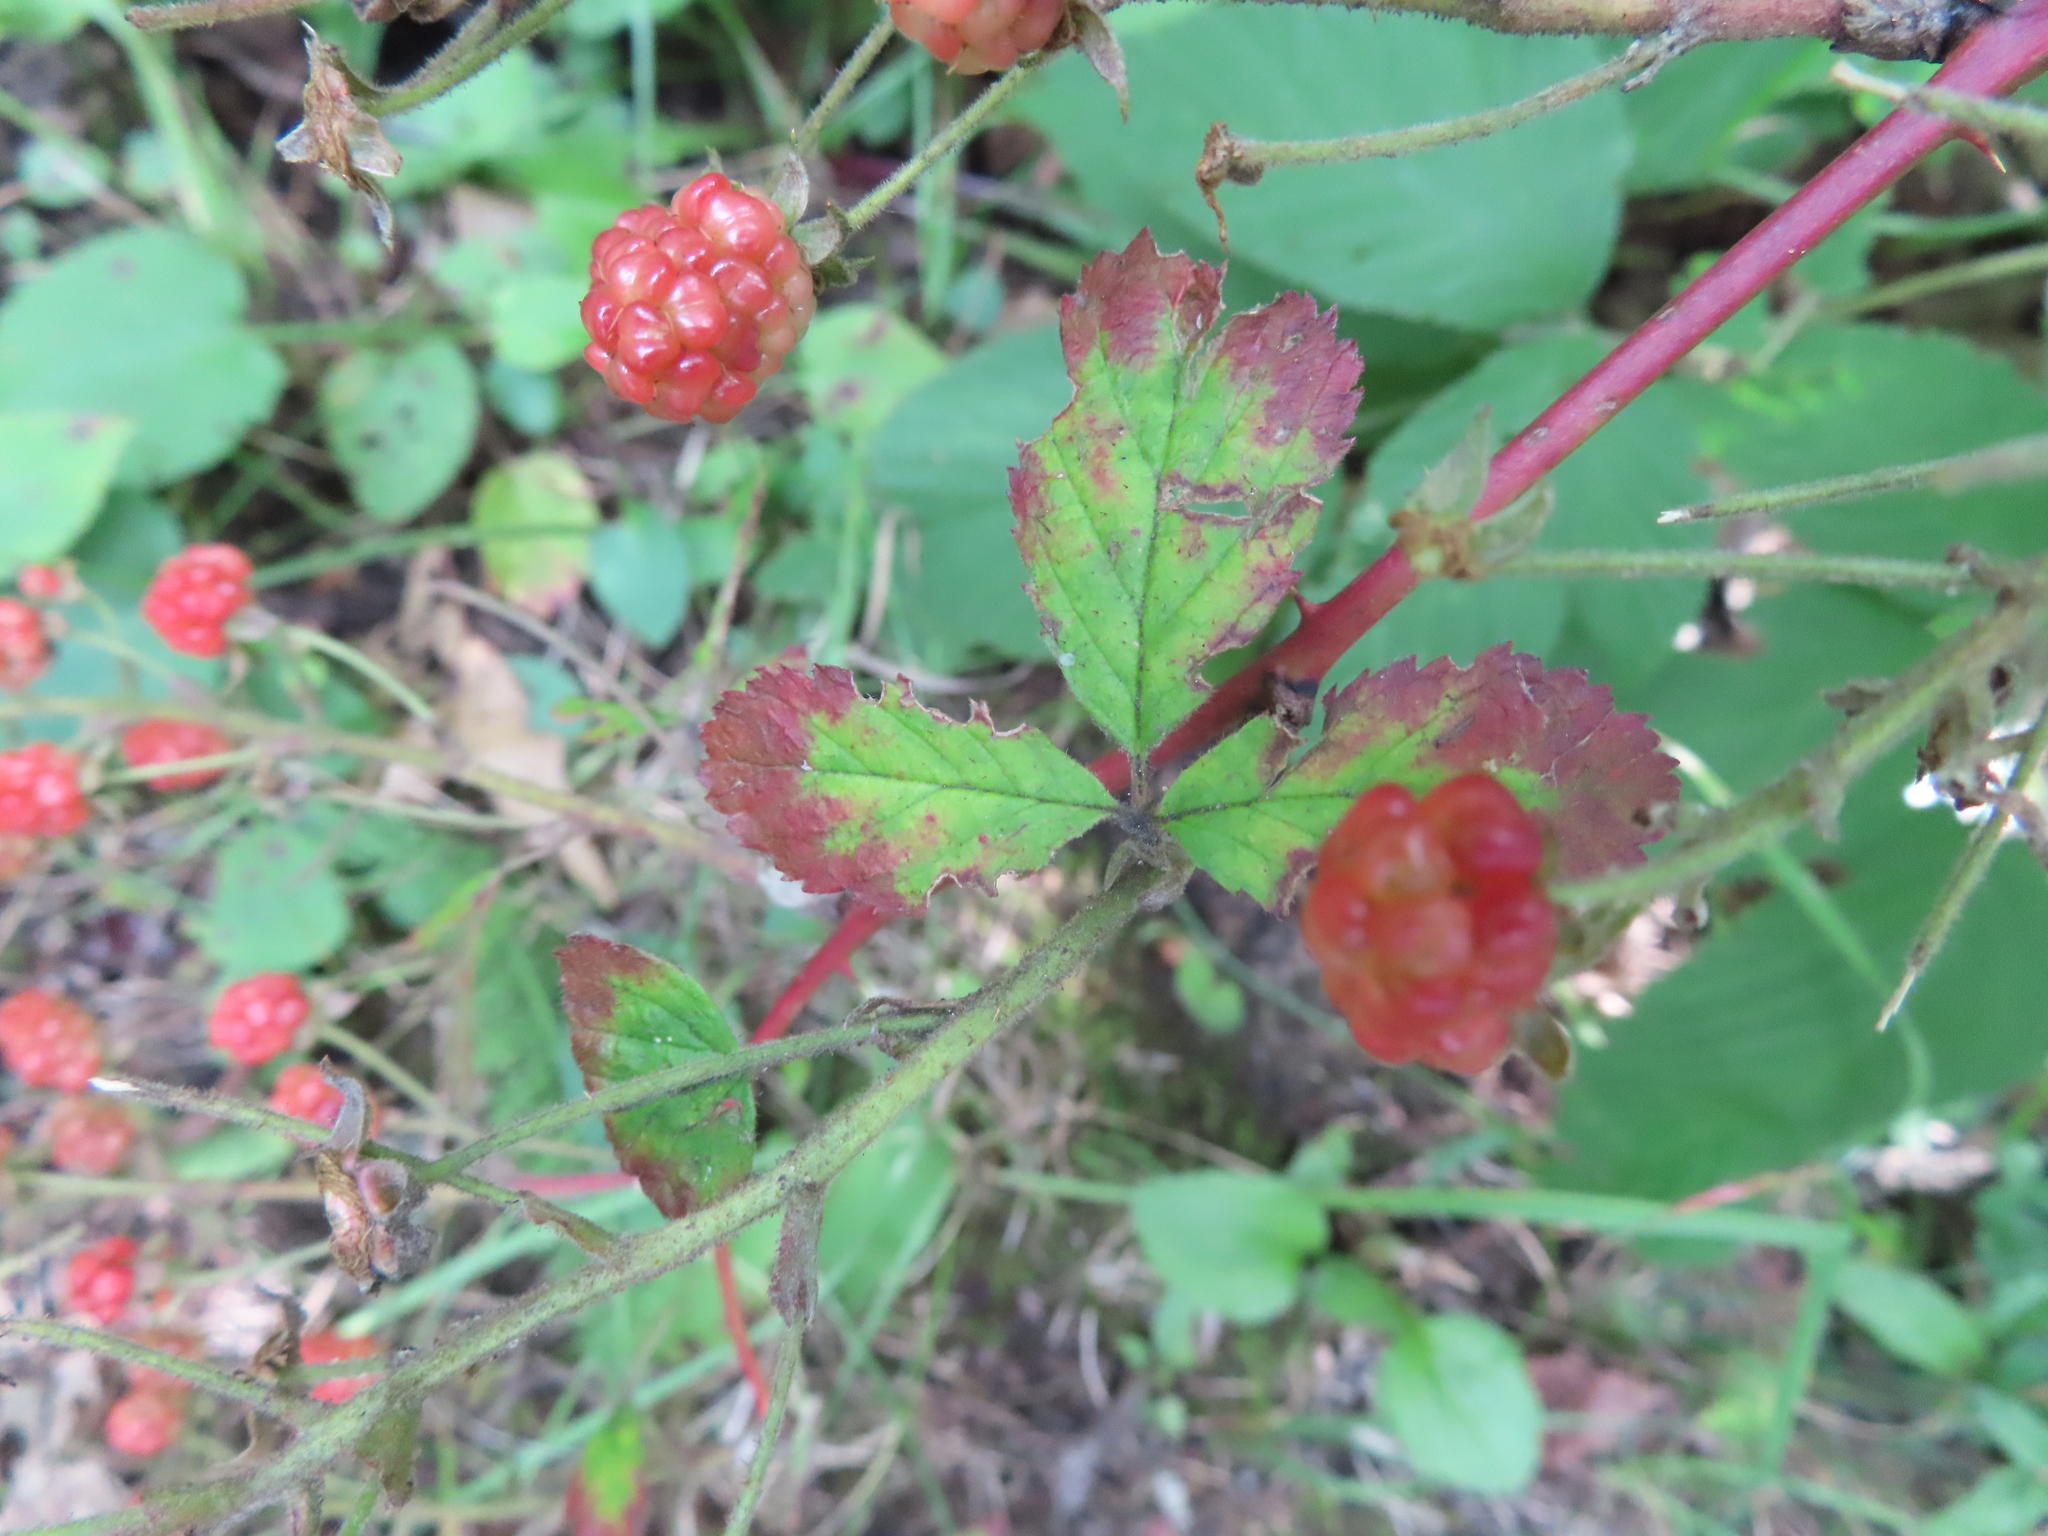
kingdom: Plantae
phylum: Tracheophyta
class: Magnoliopsida
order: Rosales
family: Rosaceae
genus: Rubus
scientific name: Rubus allegheniensis
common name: Allegheny blackberry
